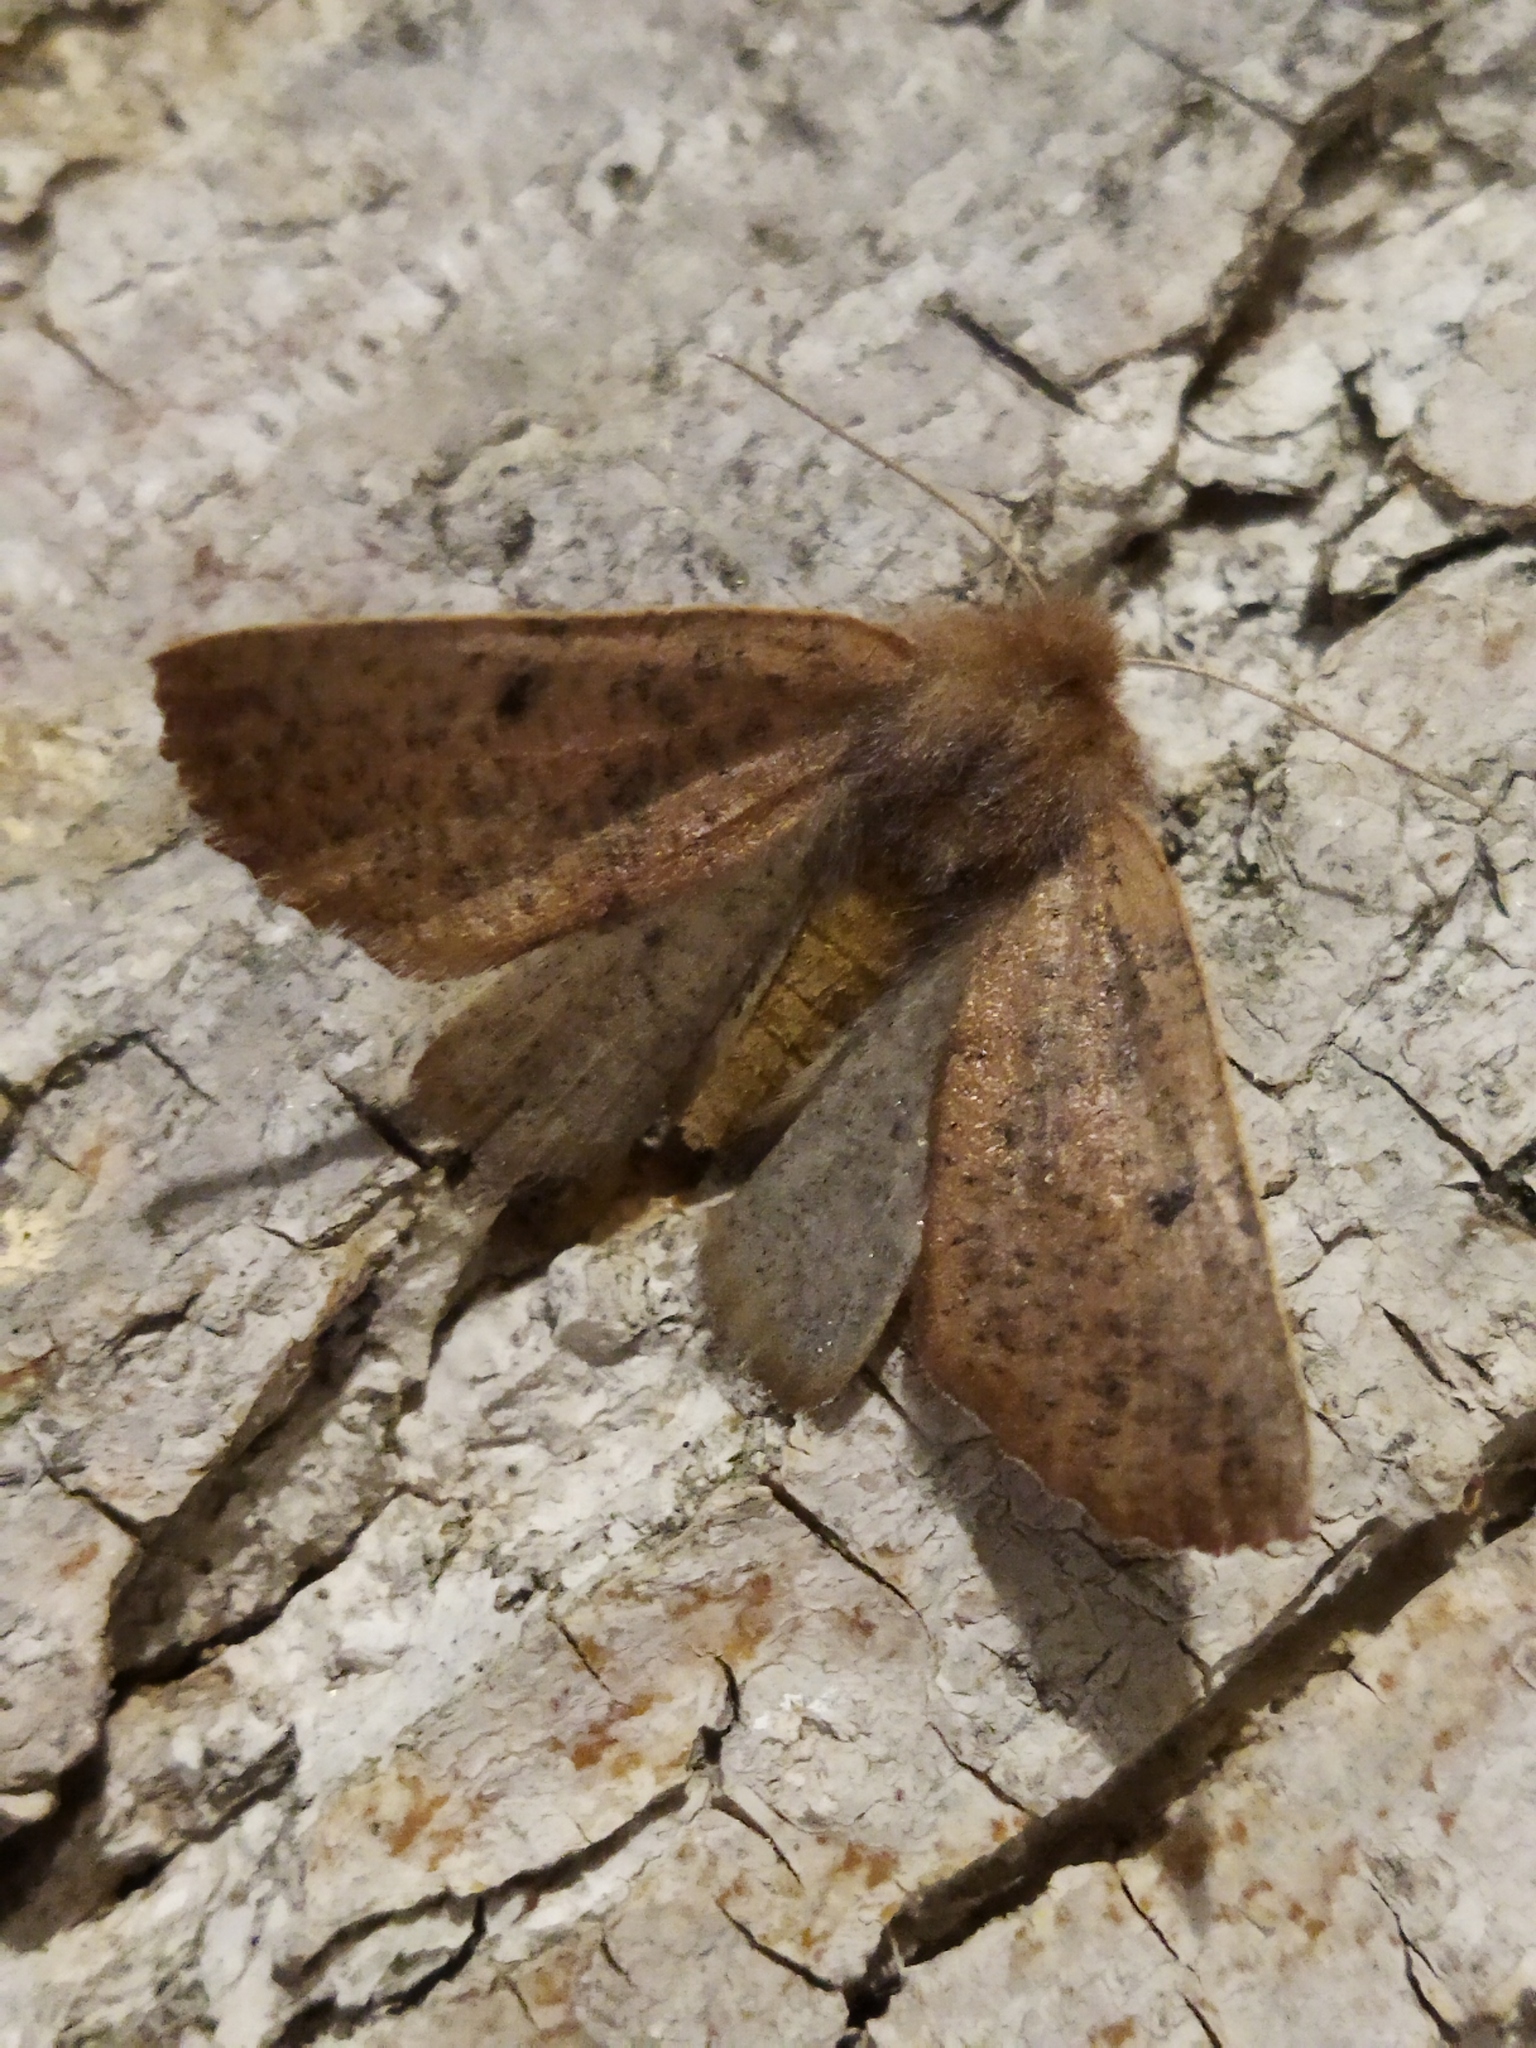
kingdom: Animalia
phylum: Arthropoda
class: Insecta
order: Lepidoptera
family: Geometridae
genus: Dasycorsa
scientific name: Dasycorsa modesta
